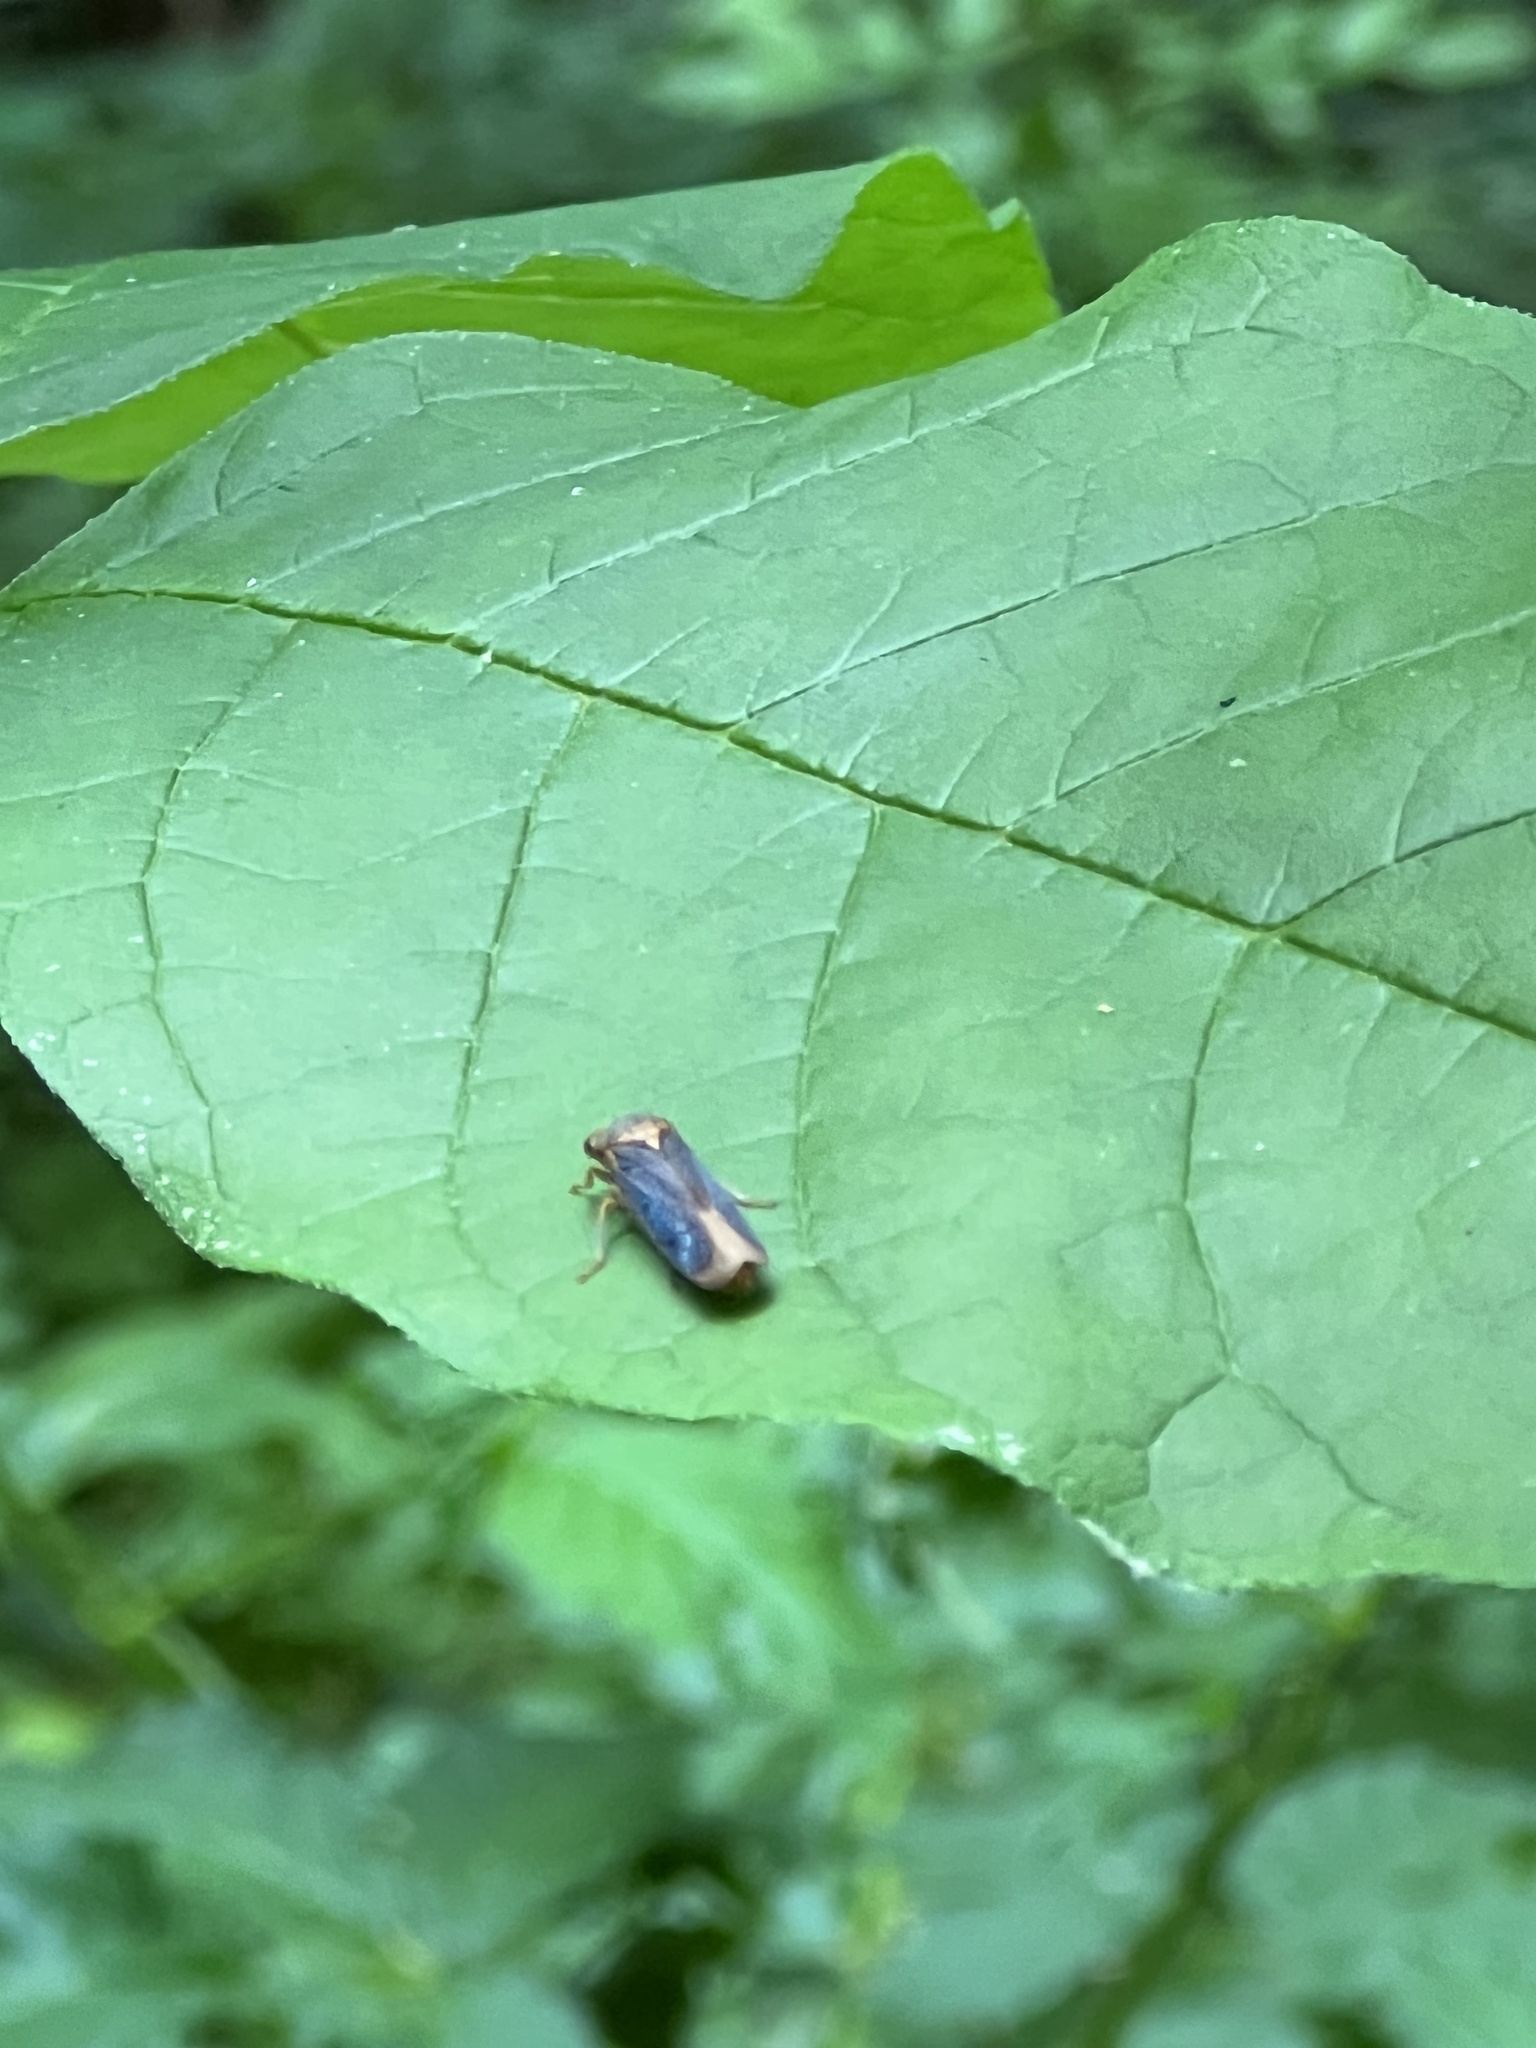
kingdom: Animalia
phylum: Arthropoda
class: Insecta
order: Hemiptera
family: Cicadellidae
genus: Oncometopia
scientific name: Oncometopia orbona
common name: Broad-headed sharpshooter
